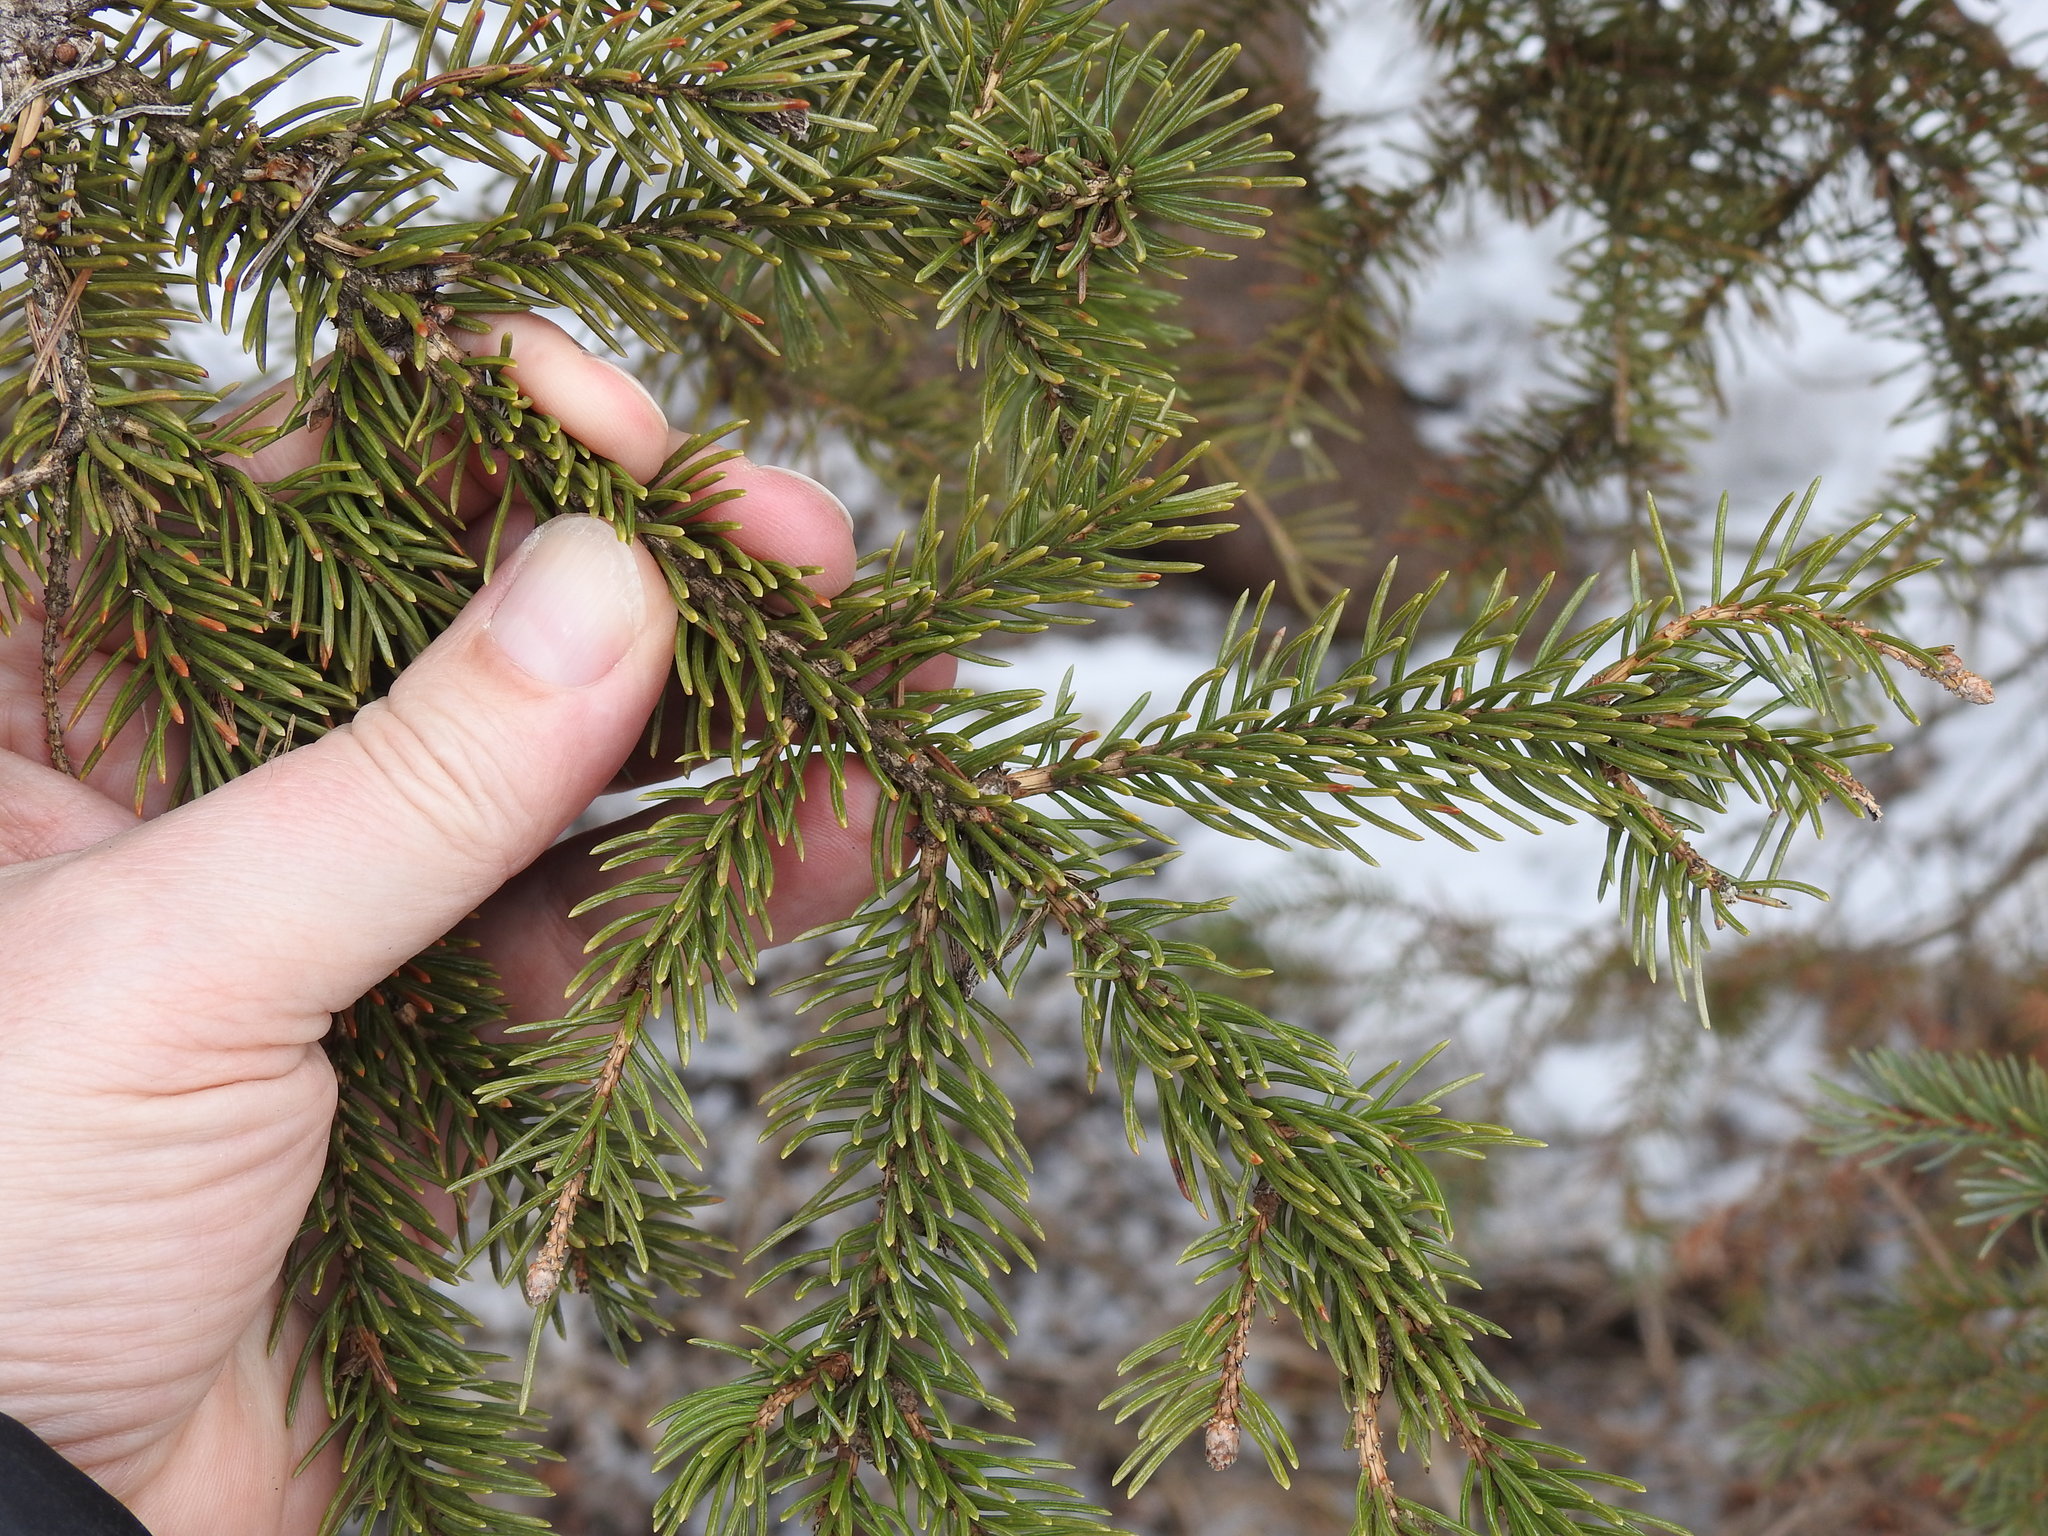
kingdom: Plantae
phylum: Tracheophyta
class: Pinopsida
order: Pinales
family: Pinaceae
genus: Picea
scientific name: Picea glauca
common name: White spruce
